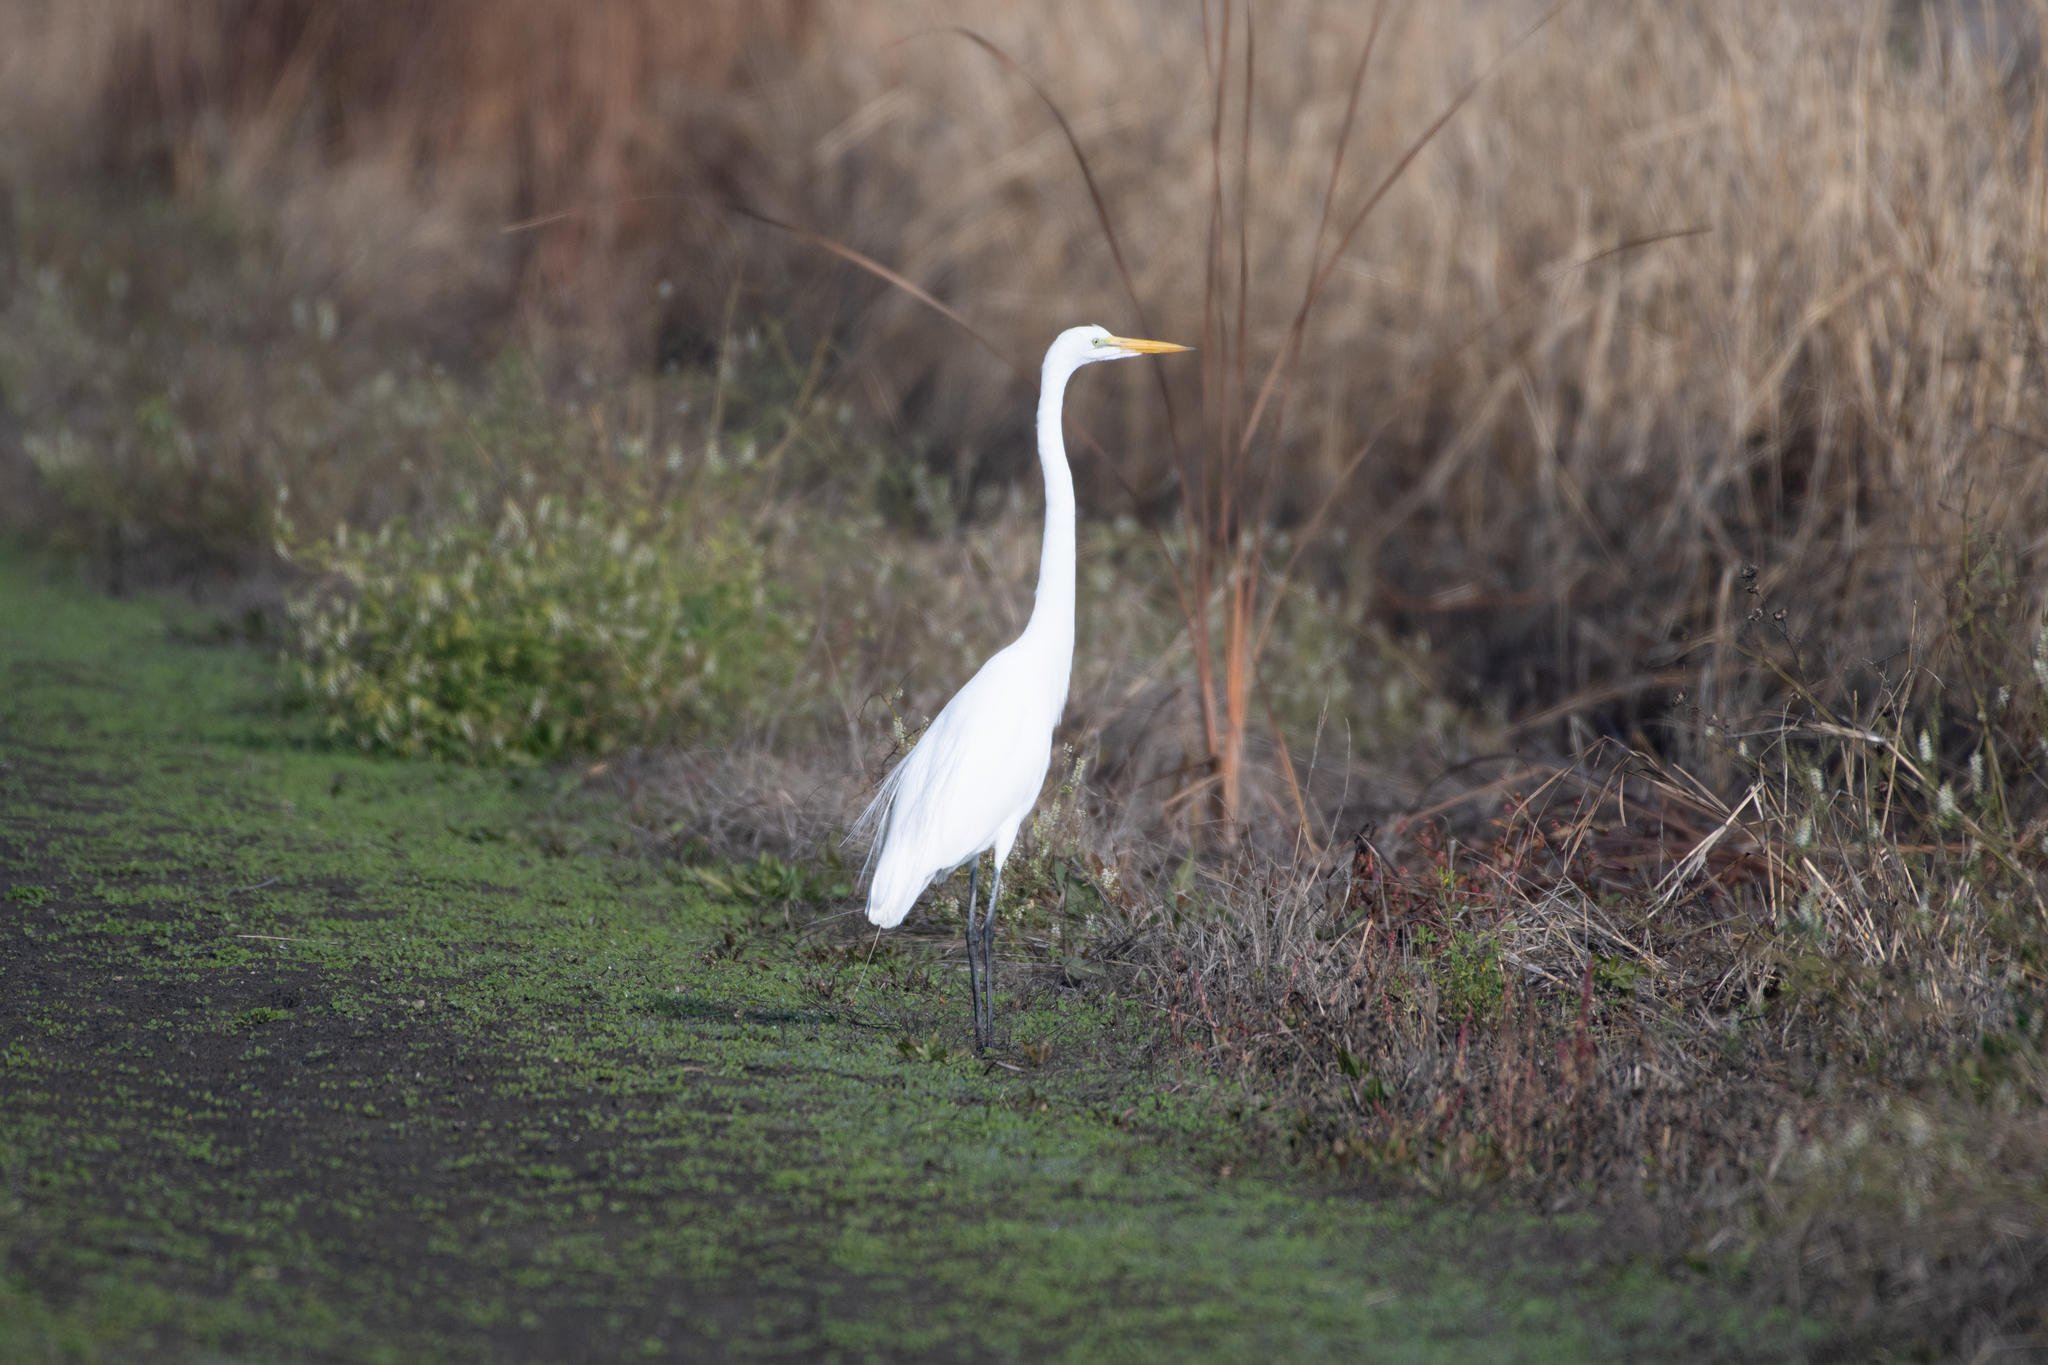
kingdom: Animalia
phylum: Chordata
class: Aves
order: Pelecaniformes
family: Ardeidae
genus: Ardea
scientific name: Ardea alba
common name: Great egret
